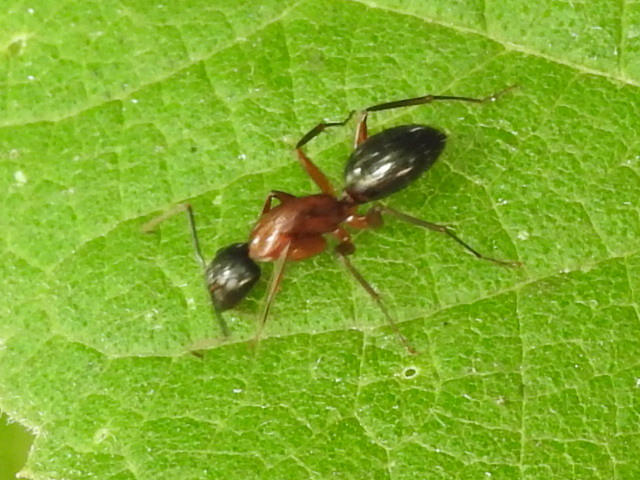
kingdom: Animalia
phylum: Arthropoda
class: Insecta
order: Hymenoptera
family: Formicidae
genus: Camponotus
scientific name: Camponotus texanus
